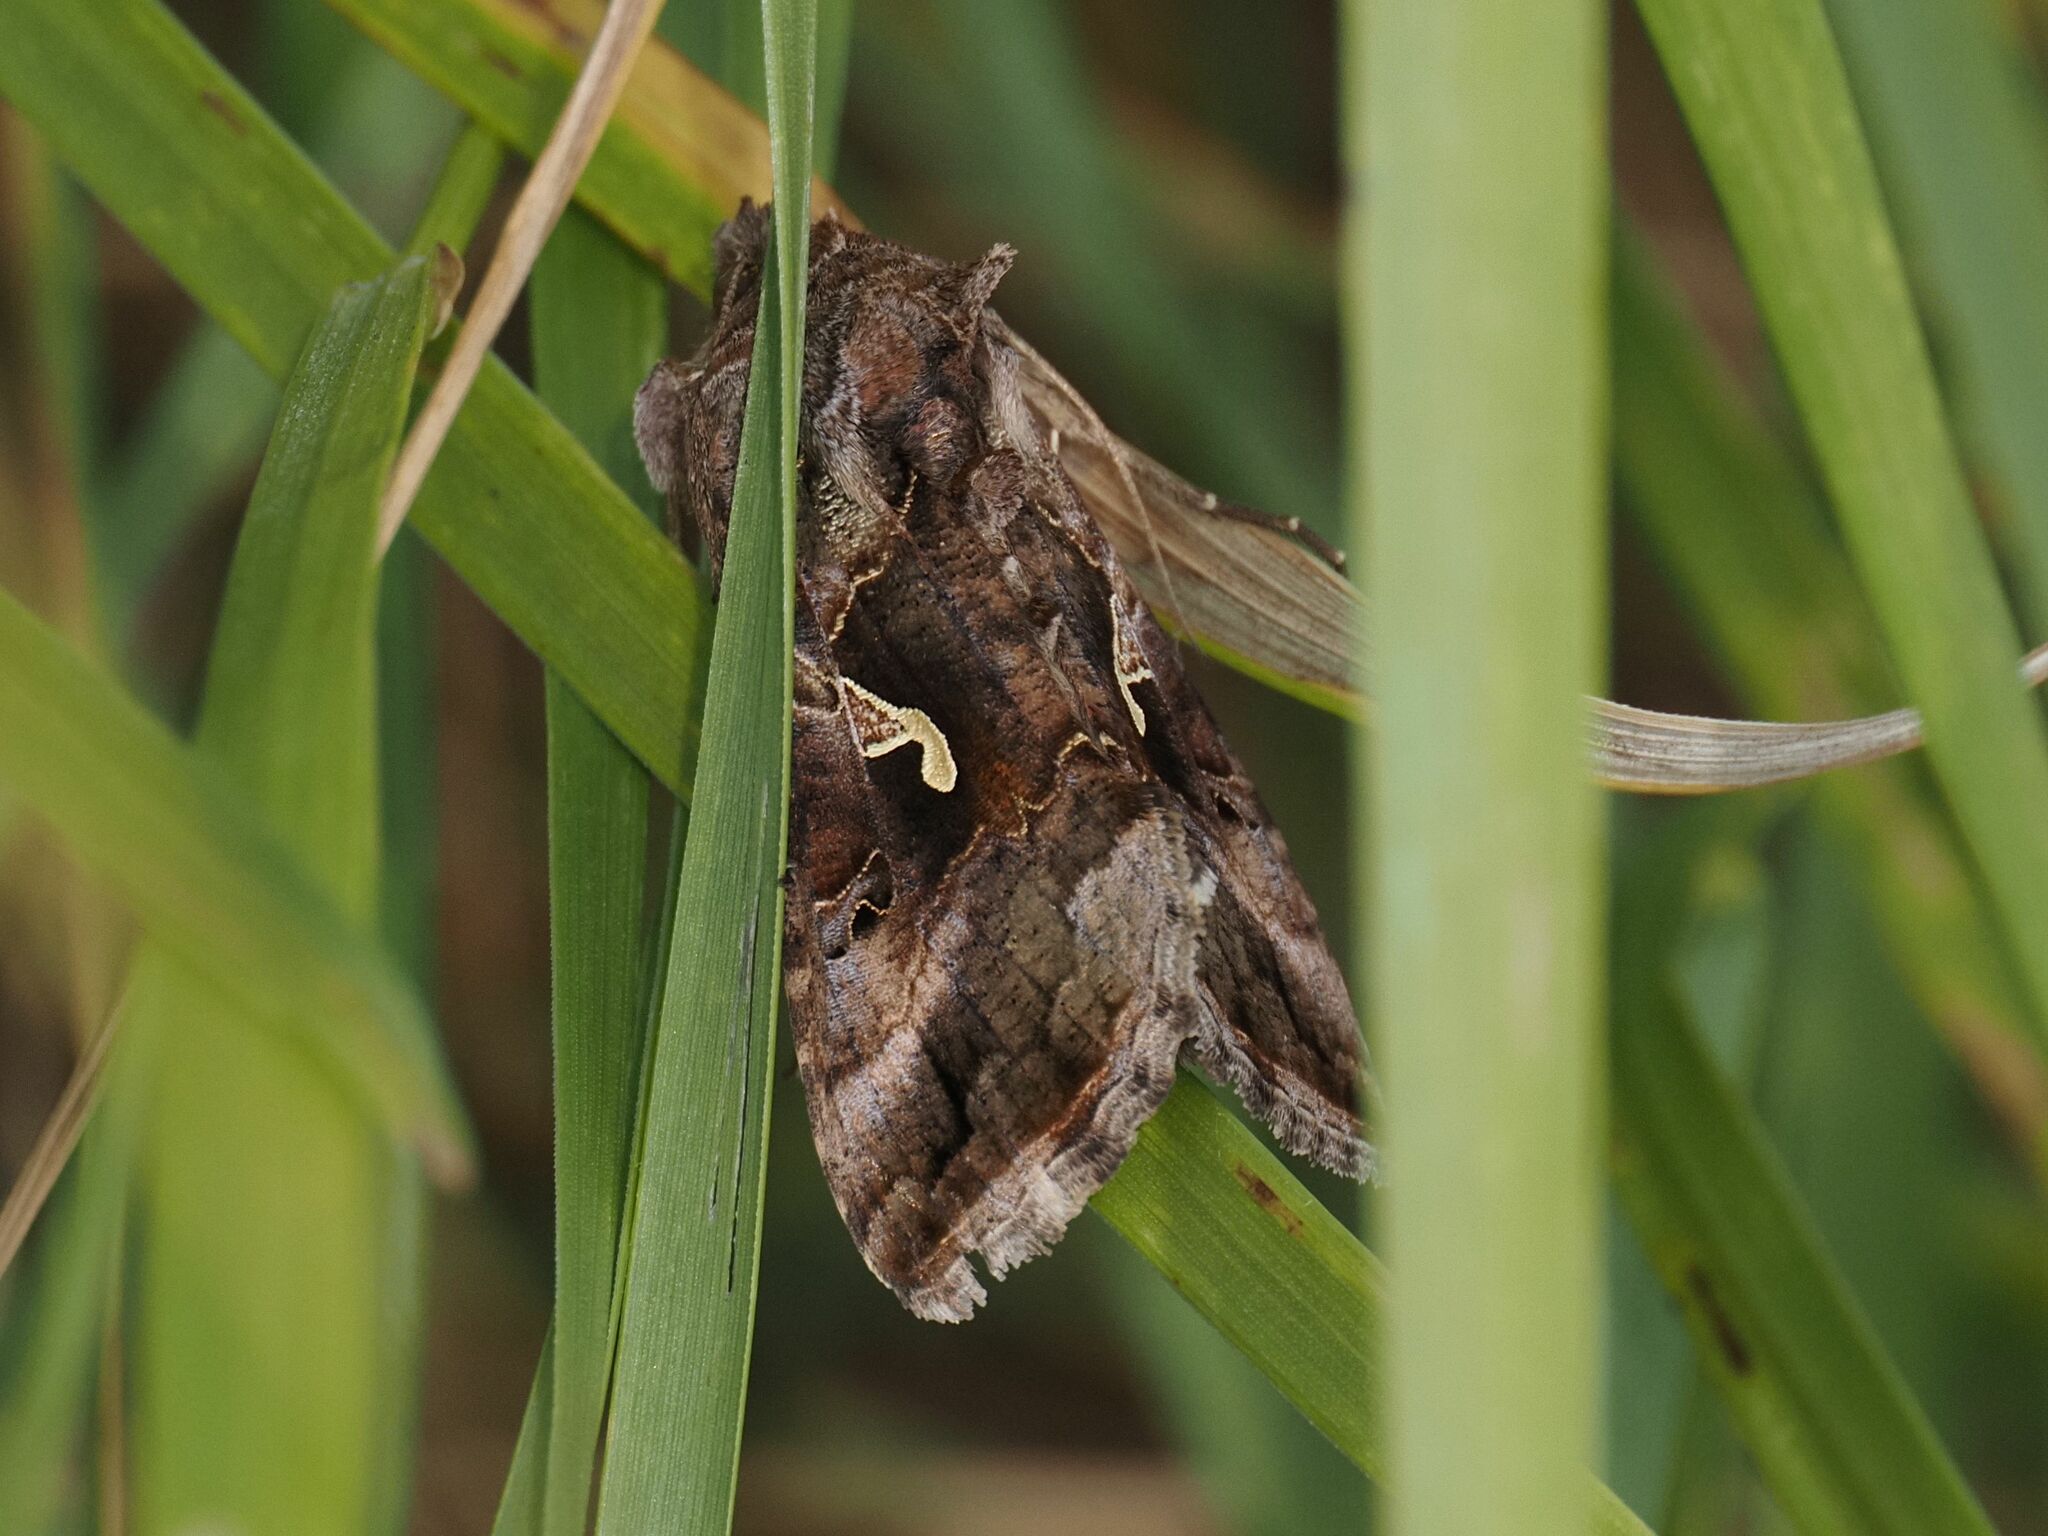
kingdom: Animalia
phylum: Arthropoda
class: Insecta
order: Lepidoptera
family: Noctuidae
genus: Autographa
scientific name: Autographa gamma
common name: Silver y
